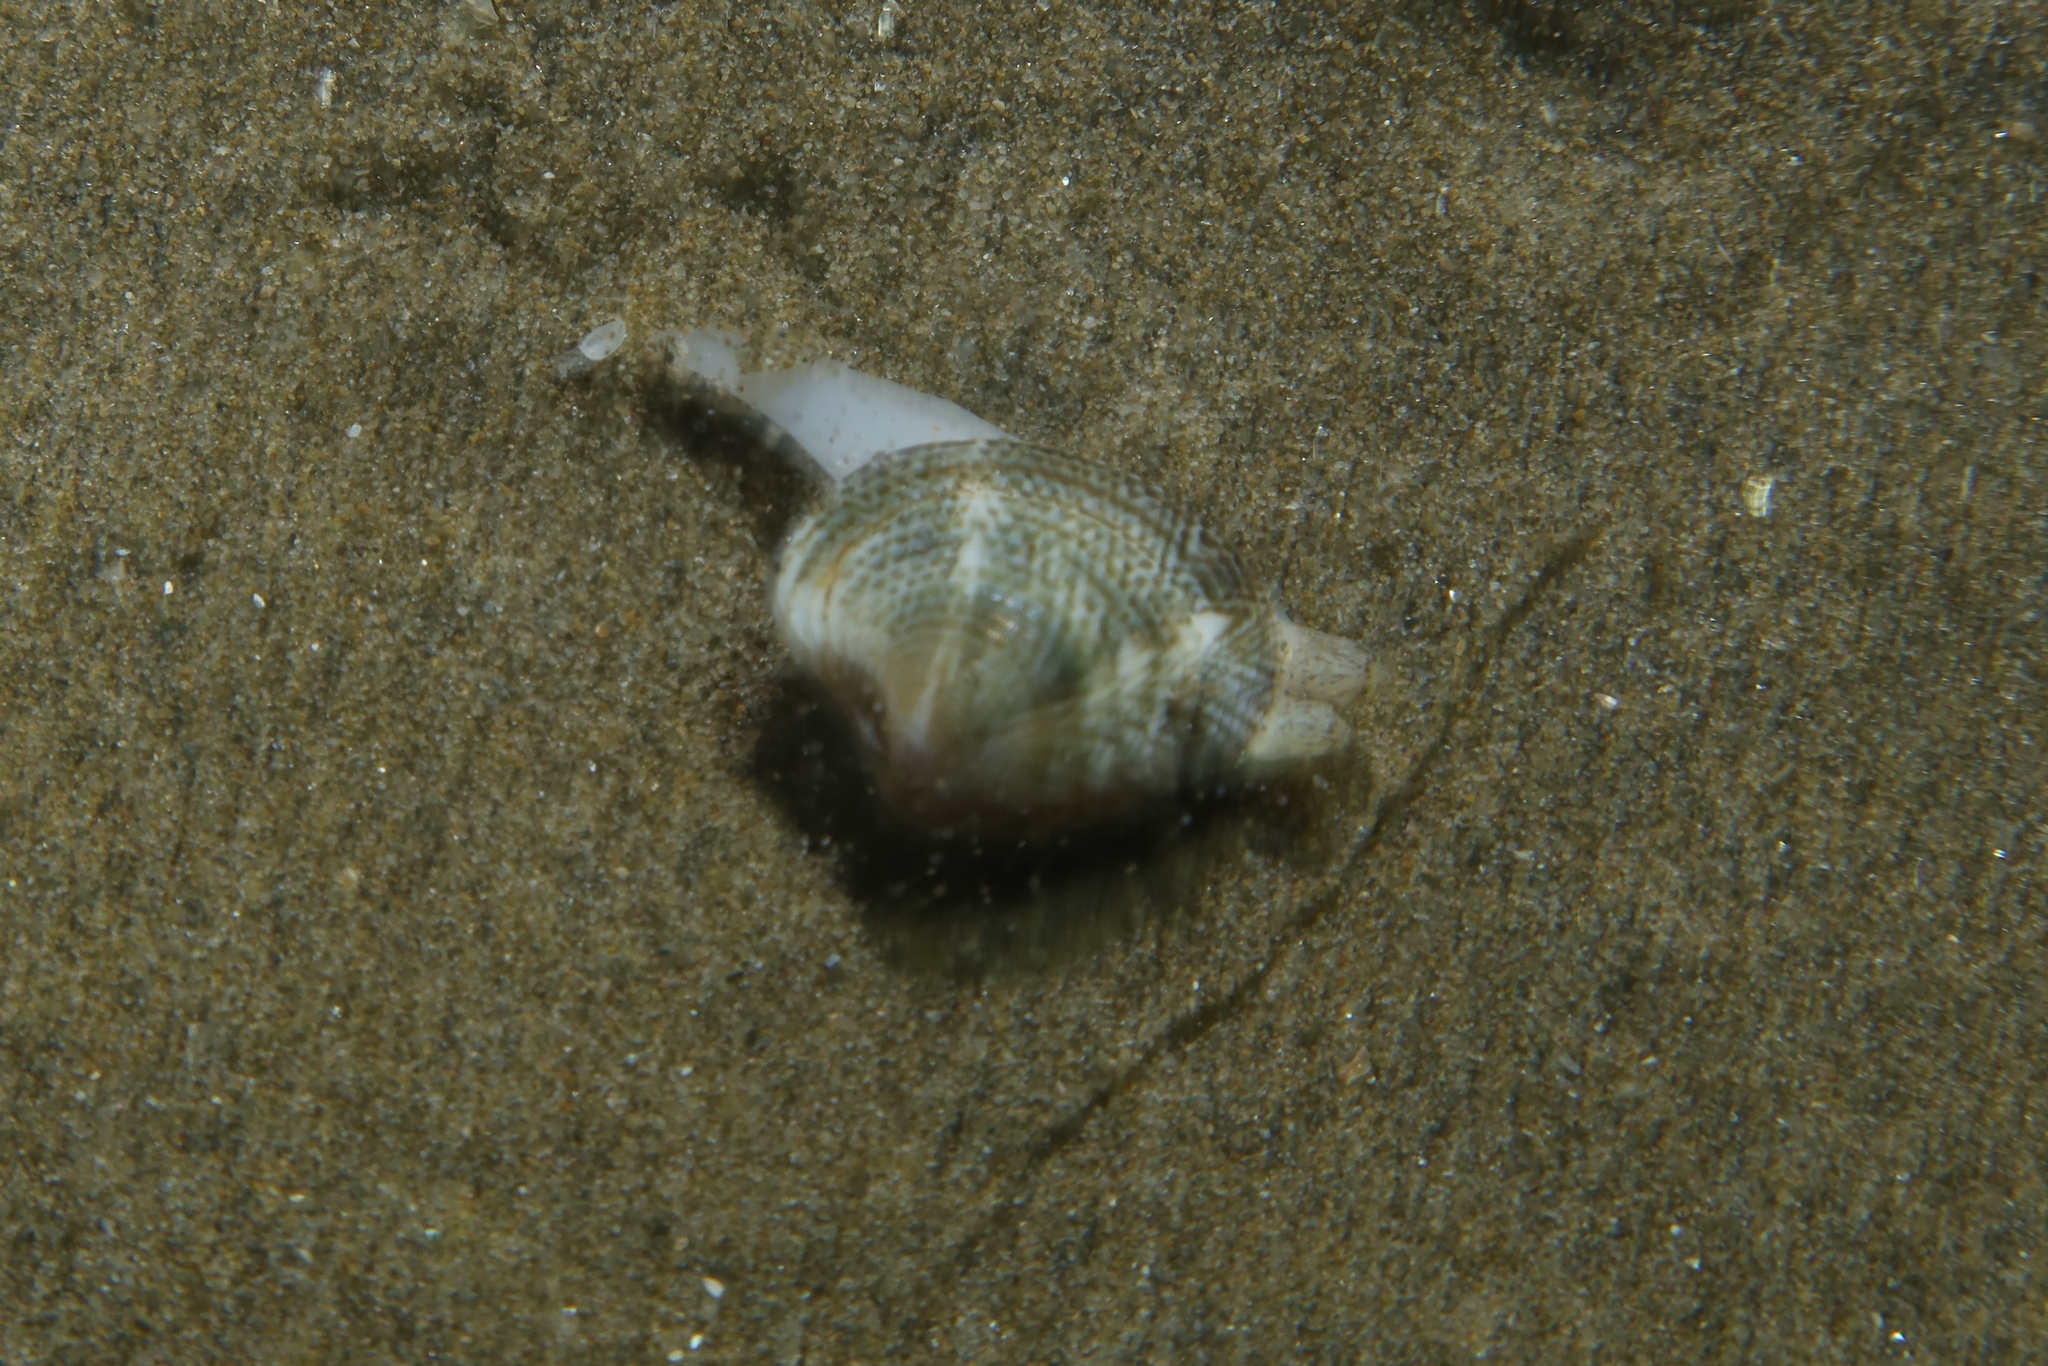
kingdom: Animalia
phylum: Mollusca
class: Bivalvia
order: Venerida
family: Veneridae
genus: Chamelea
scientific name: Chamelea gallina
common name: Chicken venus
